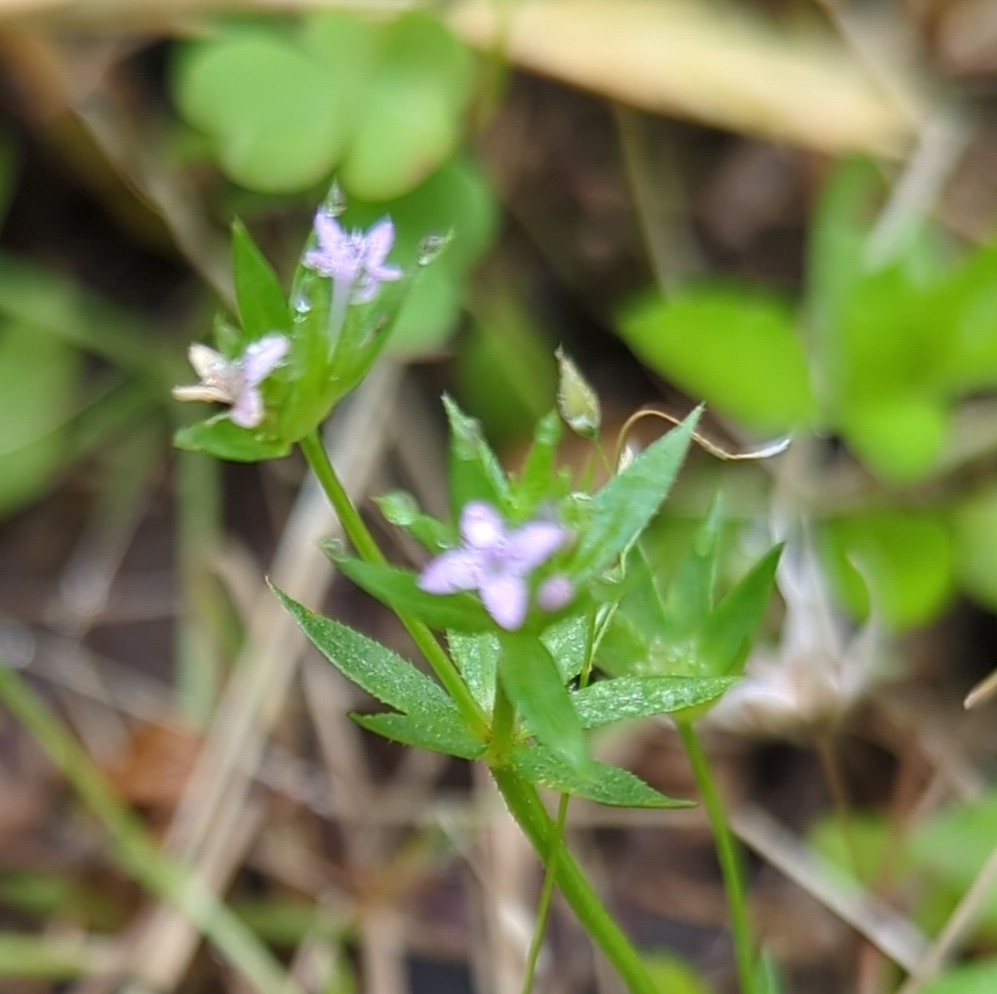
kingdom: Plantae
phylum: Tracheophyta
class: Magnoliopsida
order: Gentianales
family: Rubiaceae
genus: Sherardia
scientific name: Sherardia arvensis
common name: Field madder
